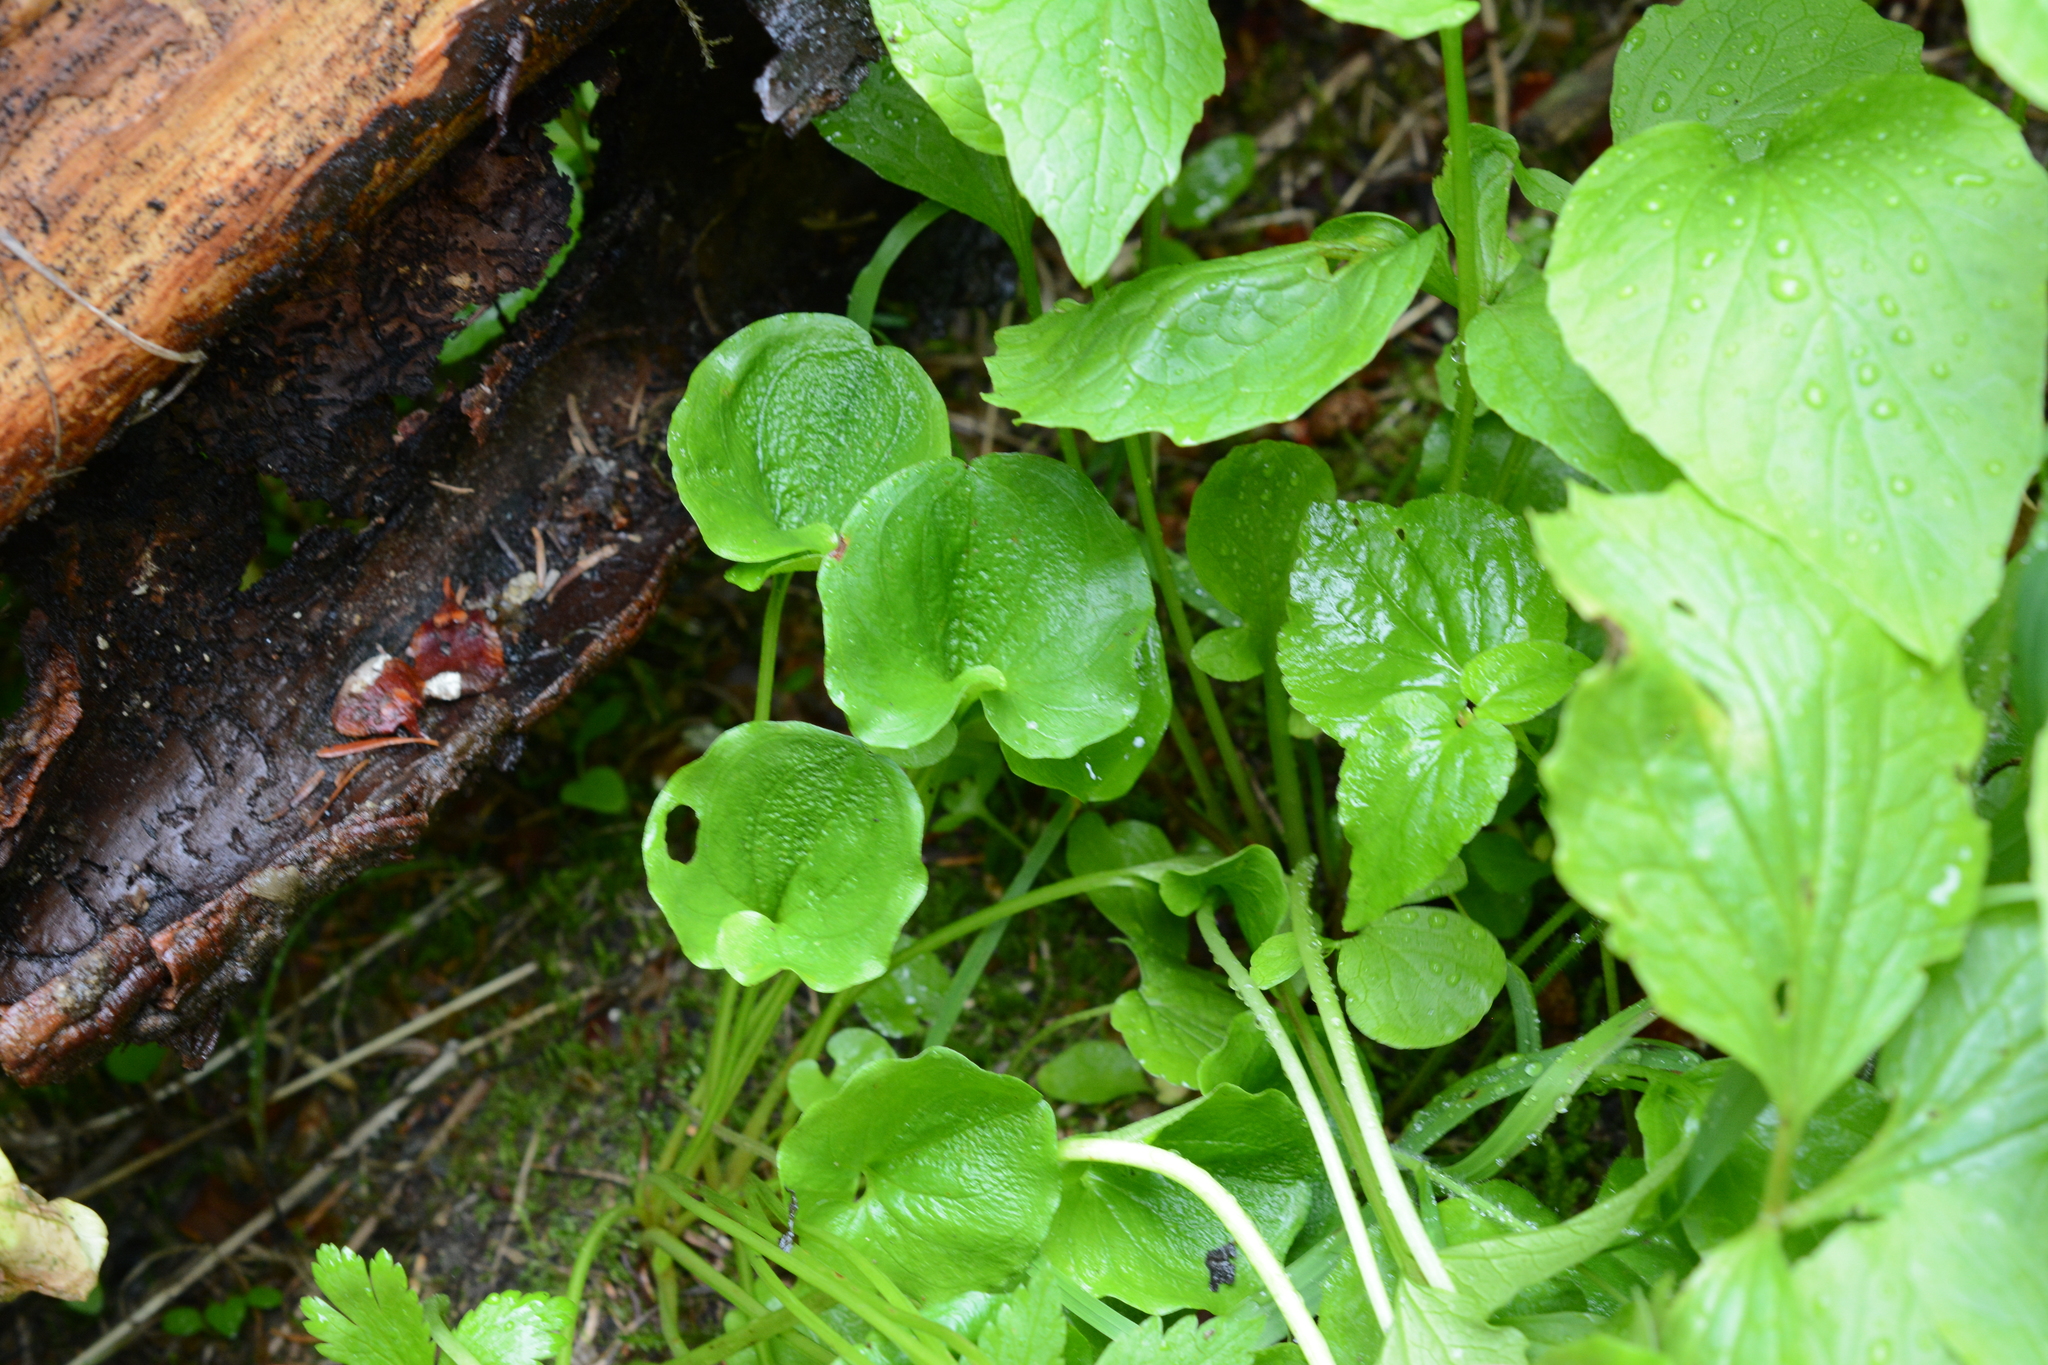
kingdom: Plantae
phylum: Tracheophyta
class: Magnoliopsida
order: Celastrales
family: Parnassiaceae
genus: Parnassia
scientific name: Parnassia fimbriata
